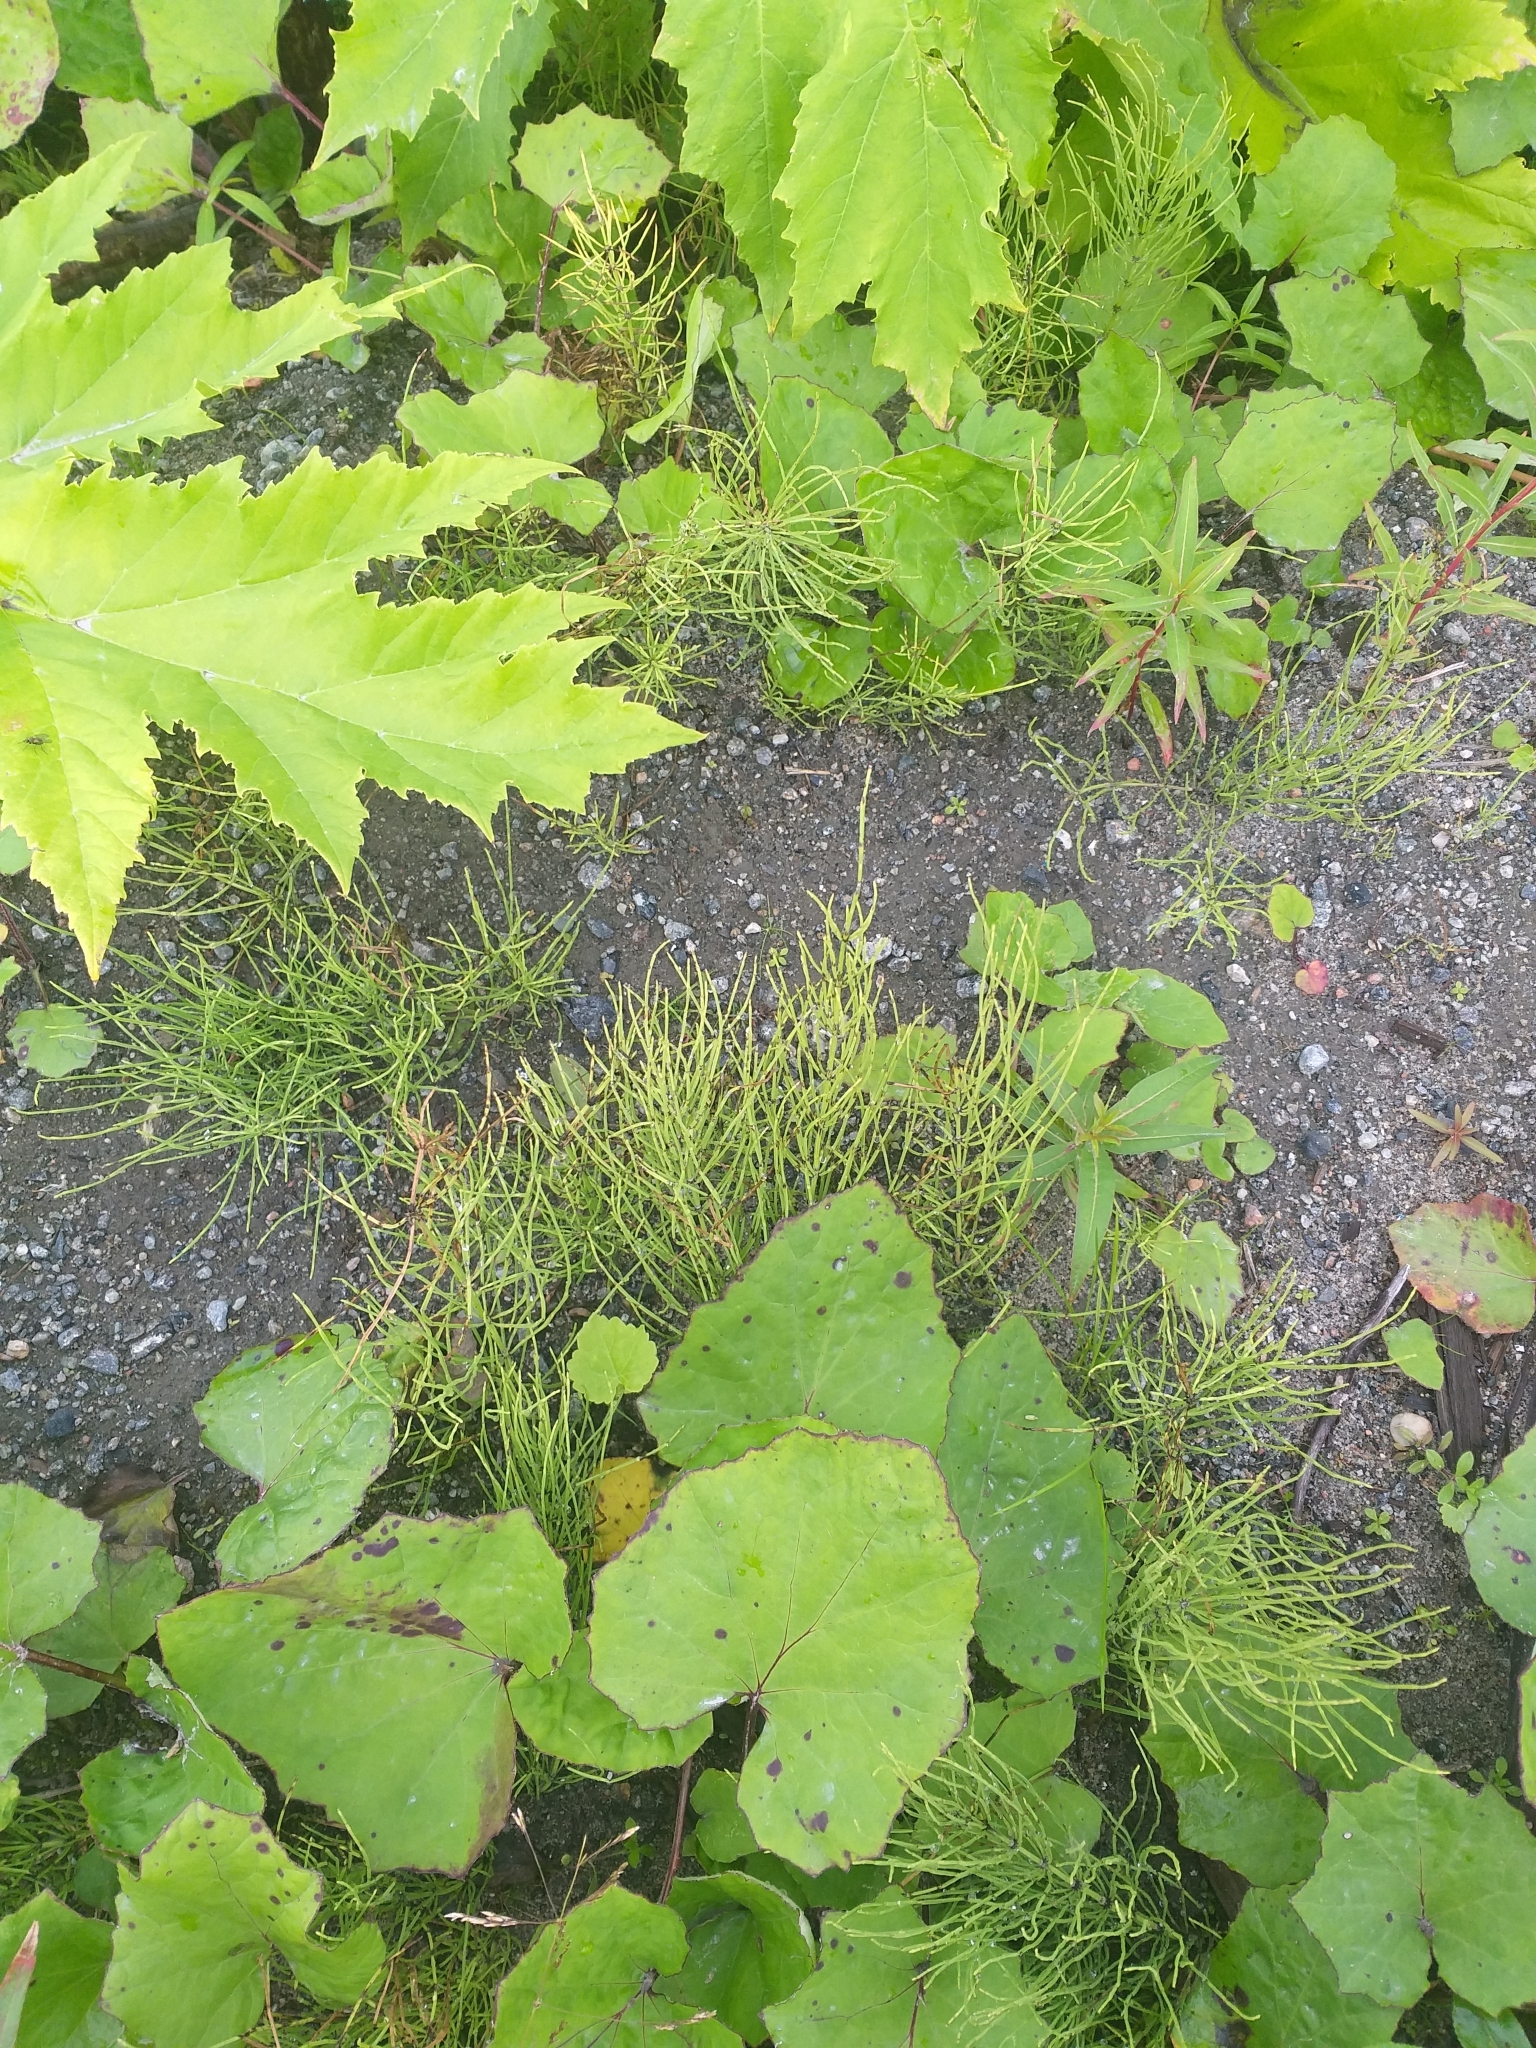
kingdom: Plantae
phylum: Tracheophyta
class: Polypodiopsida
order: Equisetales
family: Equisetaceae
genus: Equisetum
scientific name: Equisetum arvense
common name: Field horsetail
